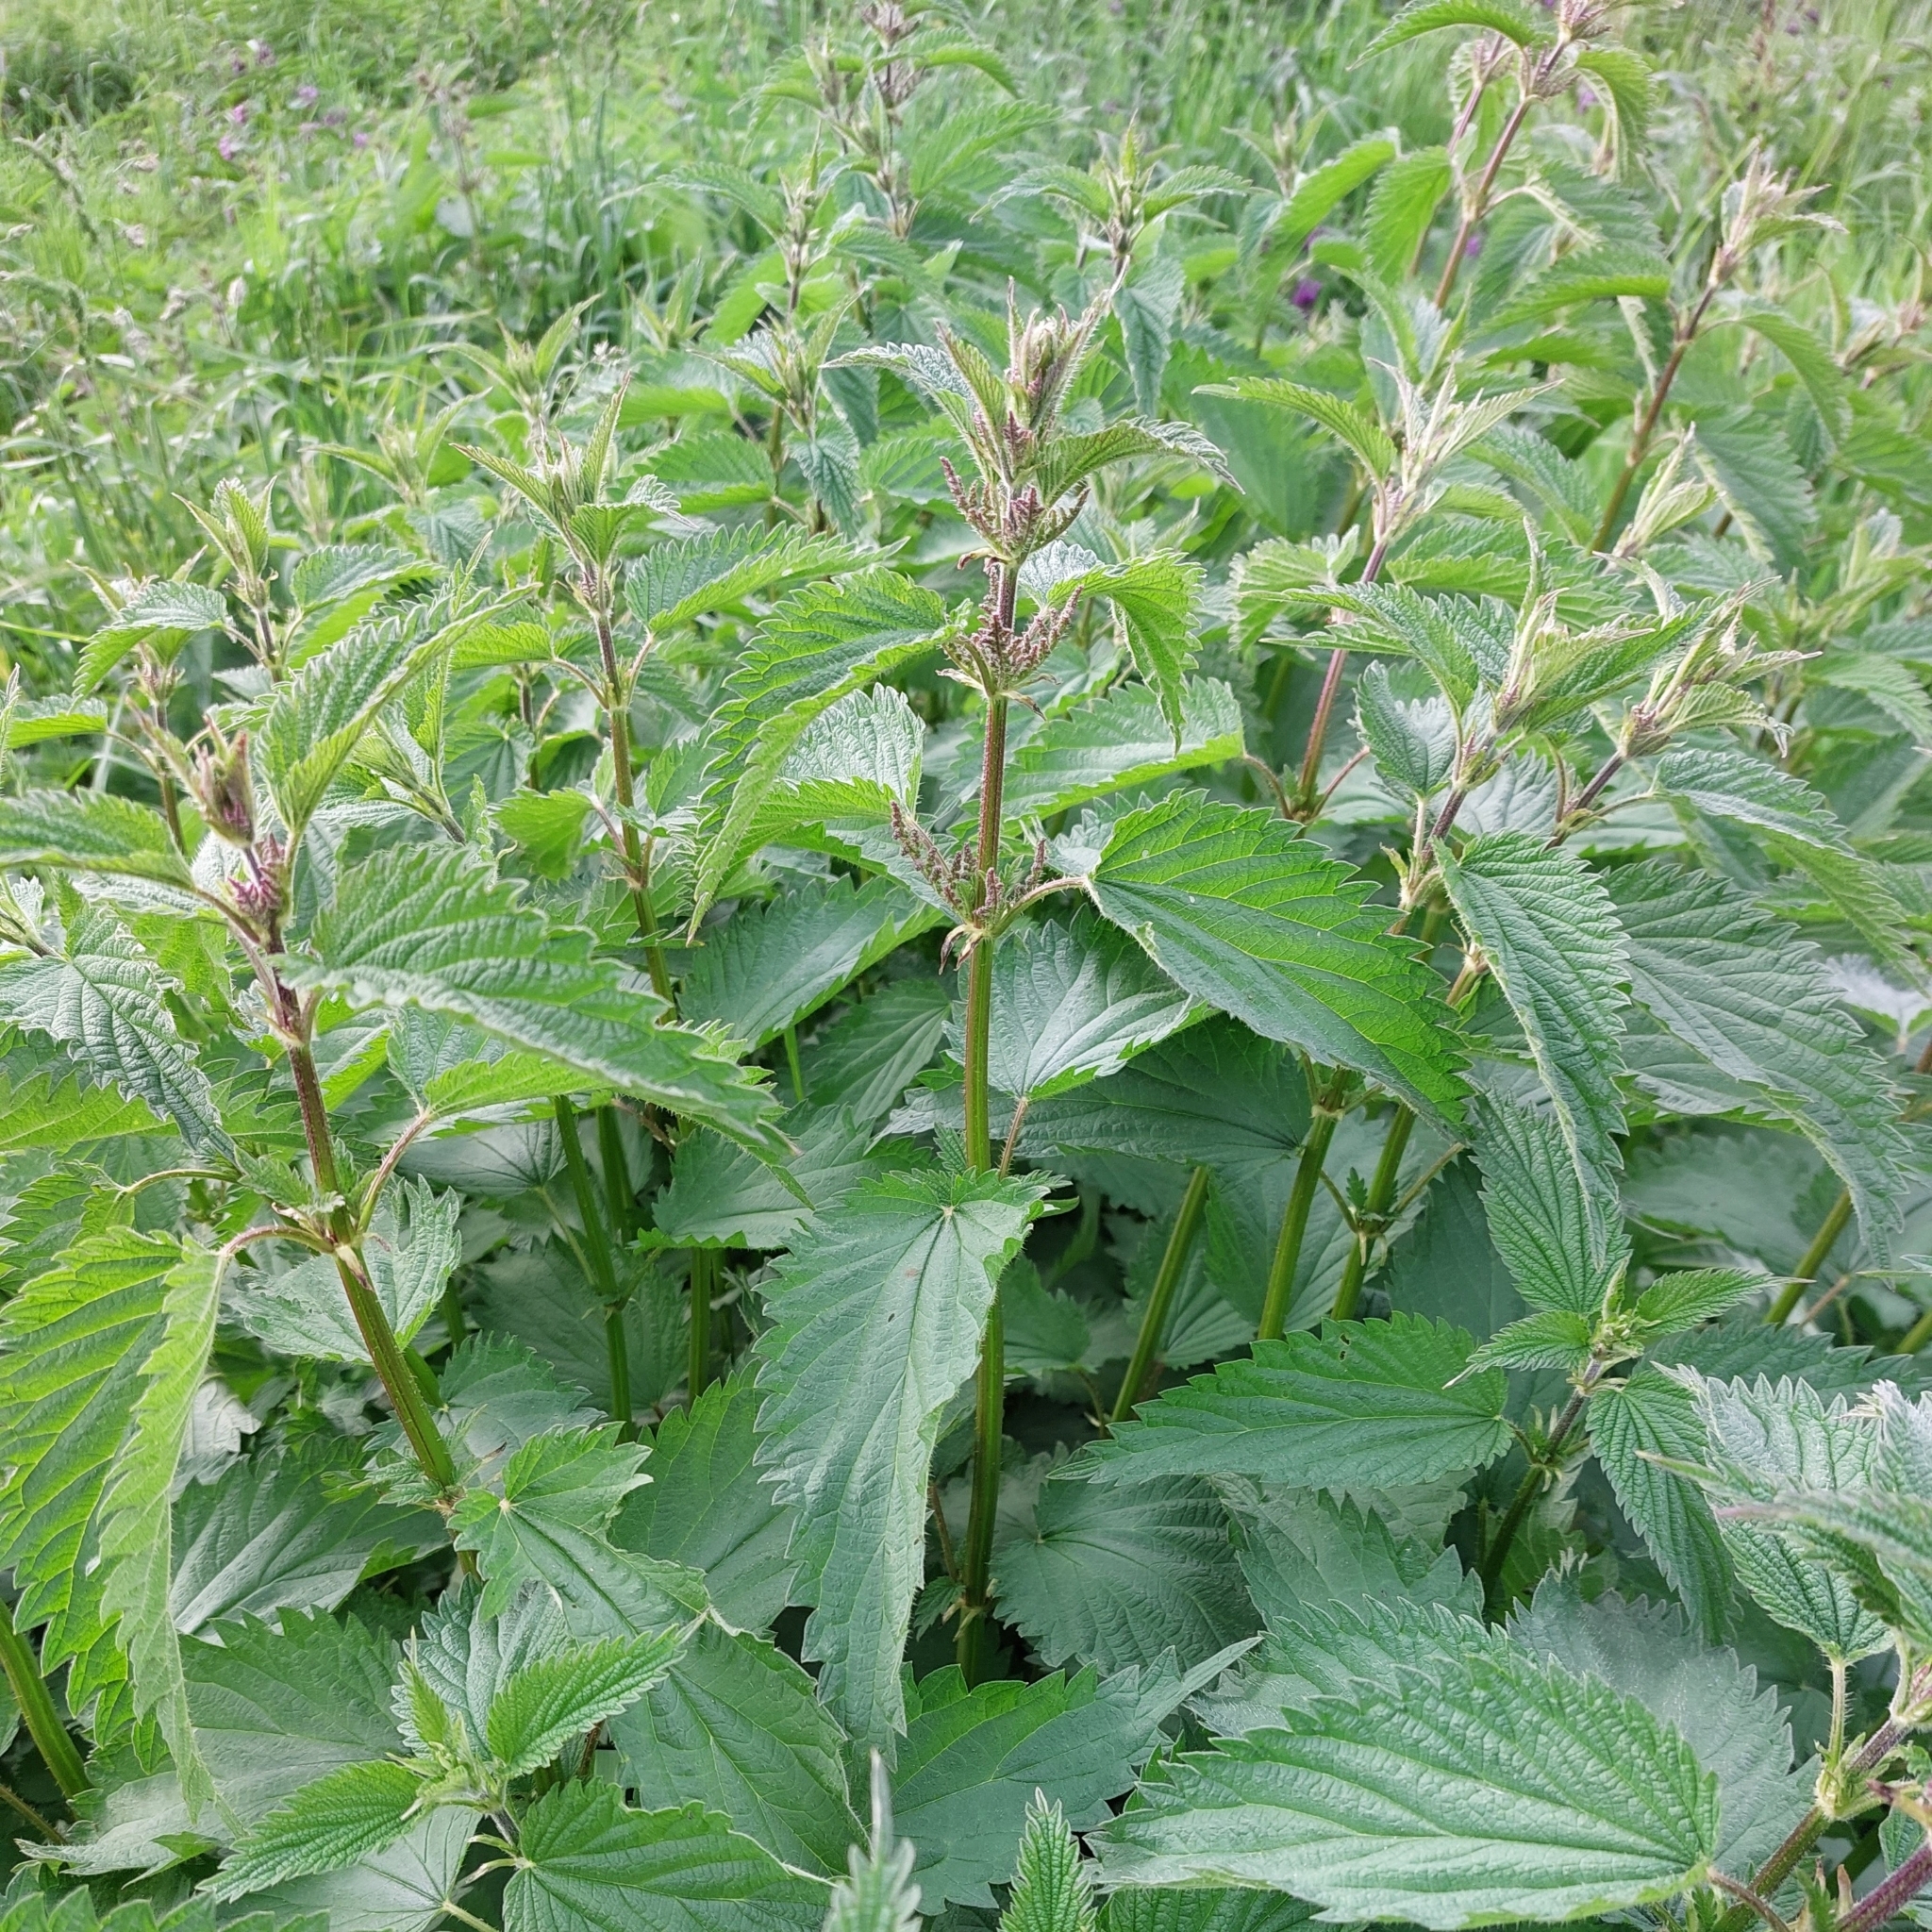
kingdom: Plantae
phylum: Tracheophyta
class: Magnoliopsida
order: Rosales
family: Urticaceae
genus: Urtica
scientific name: Urtica dioica
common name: Common nettle
